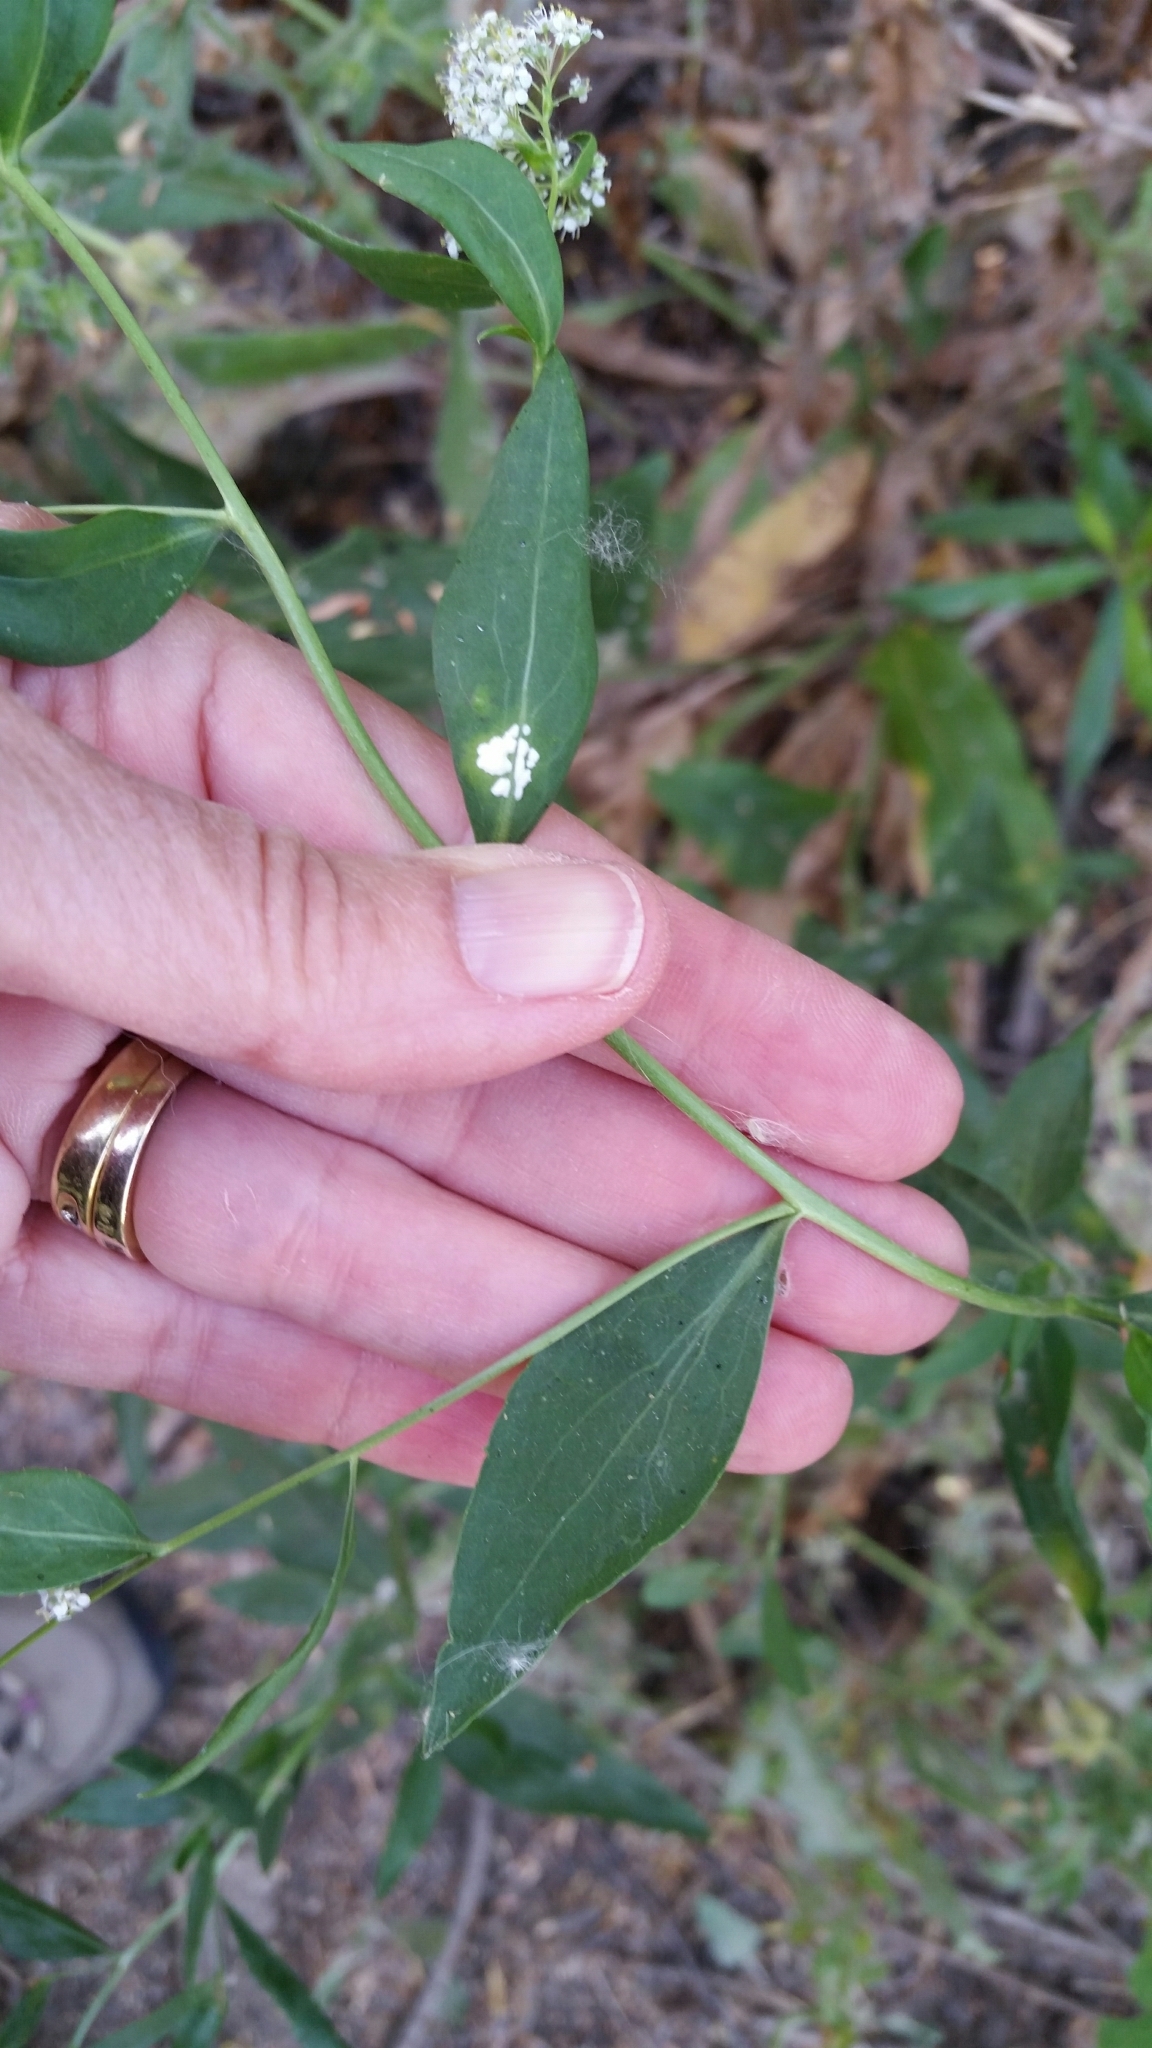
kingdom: Plantae
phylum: Tracheophyta
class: Magnoliopsida
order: Brassicales
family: Brassicaceae
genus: Lepidium
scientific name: Lepidium latifolium
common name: Dittander
